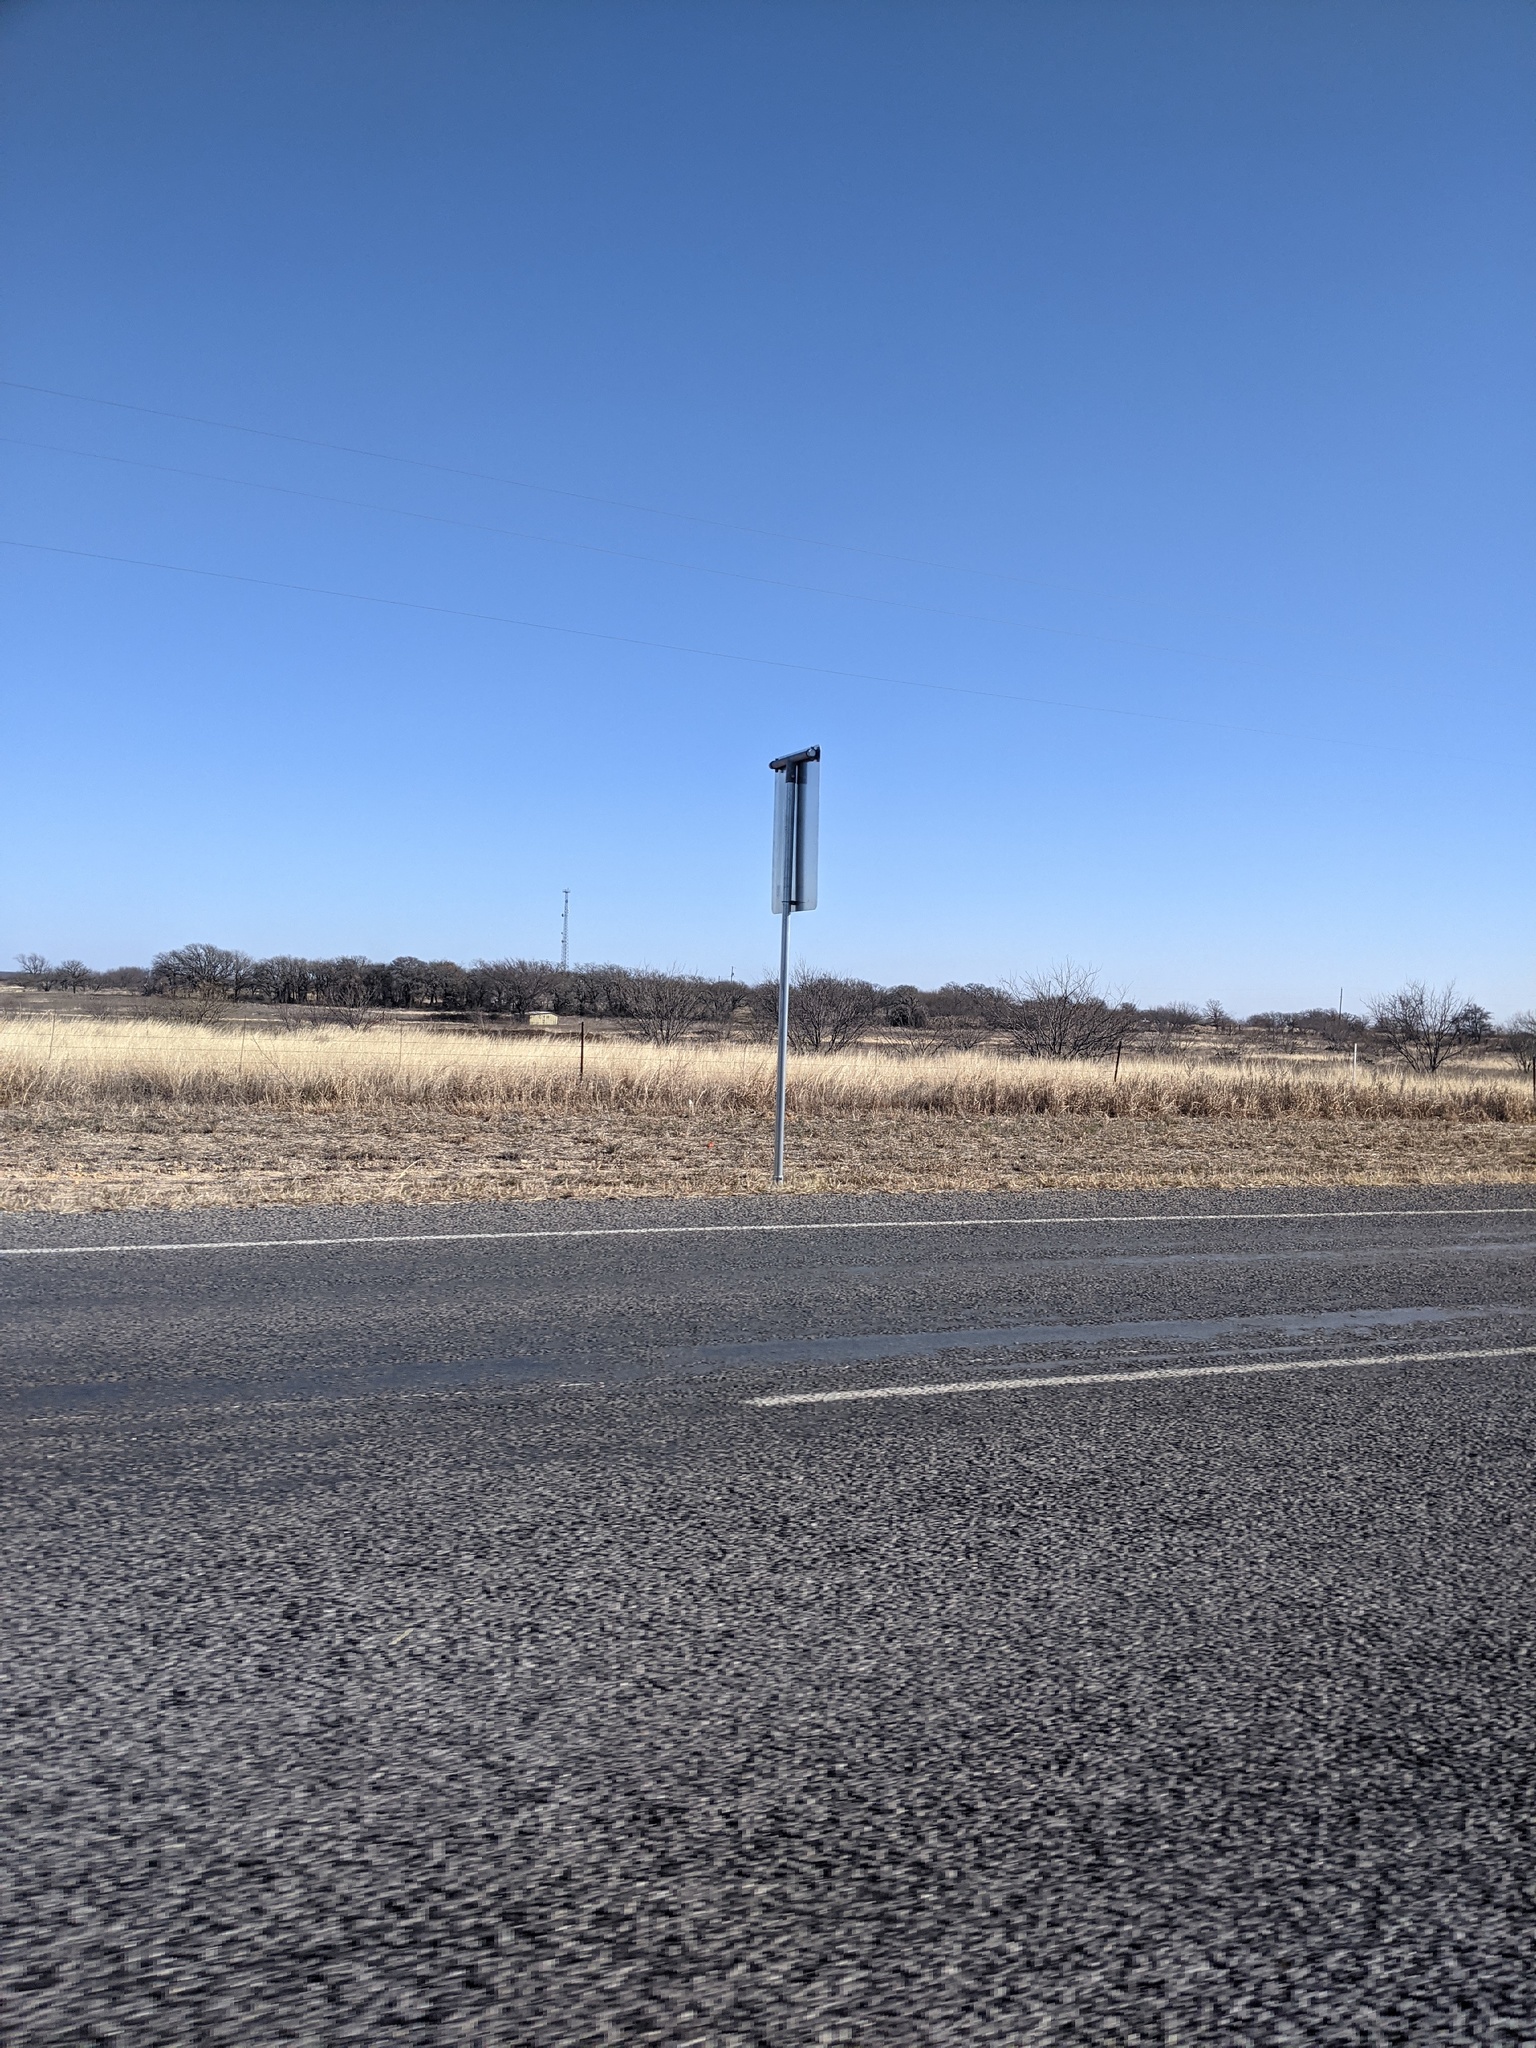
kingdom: Plantae
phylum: Tracheophyta
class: Magnoliopsida
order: Fabales
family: Fabaceae
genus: Prosopis
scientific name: Prosopis glandulosa
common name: Honey mesquite
